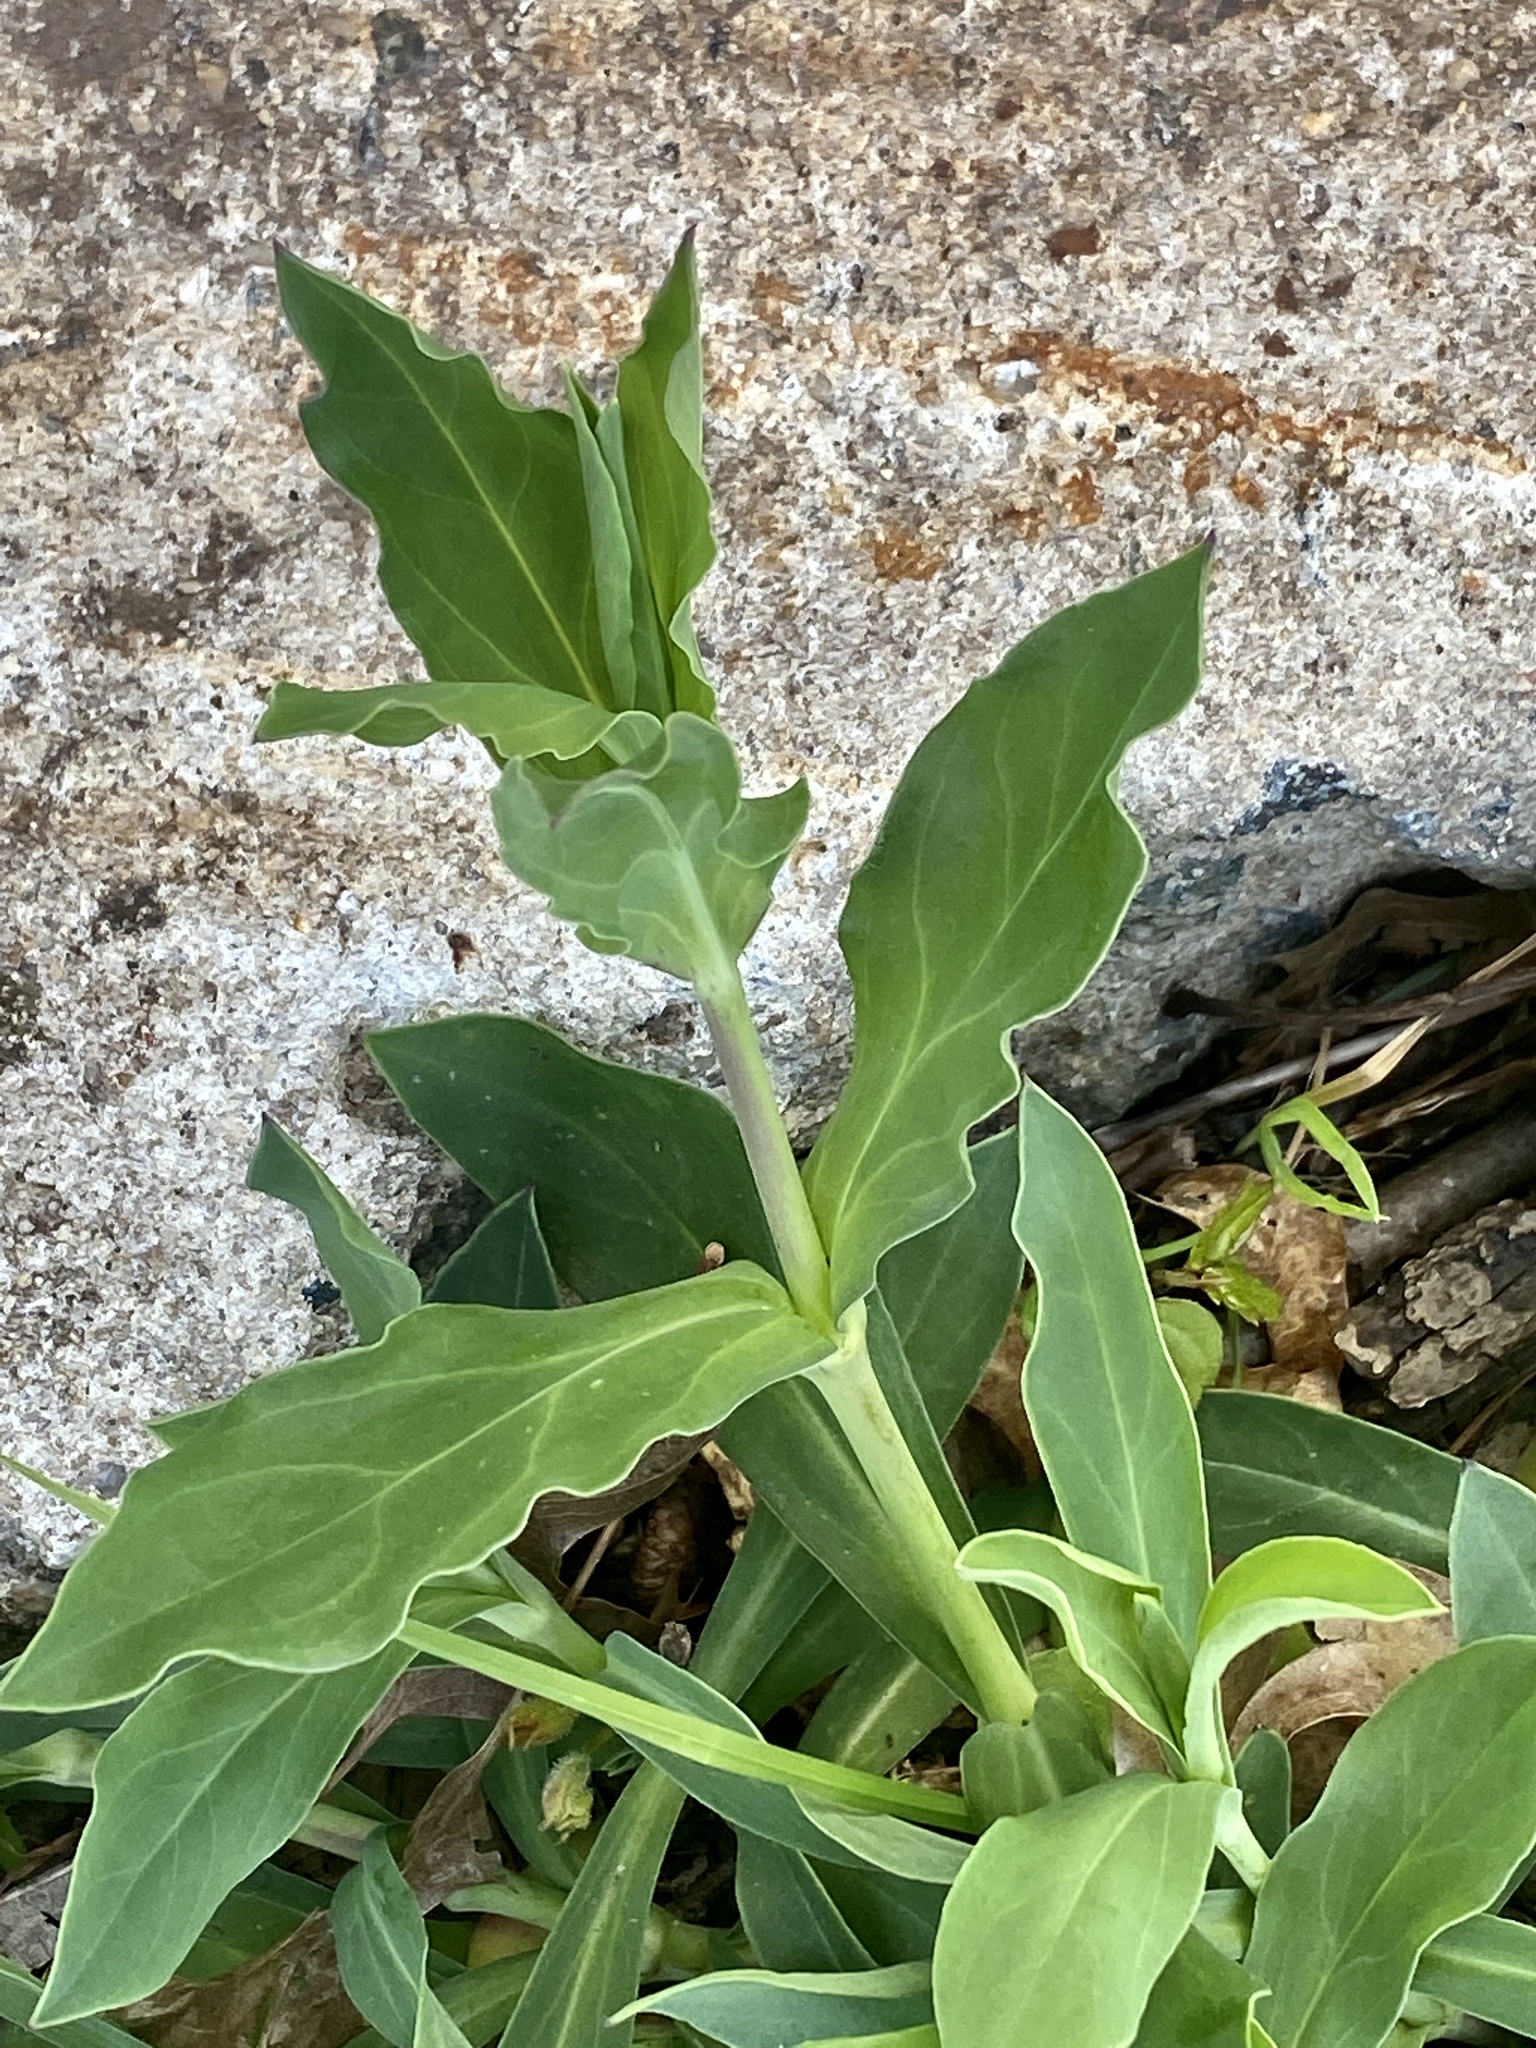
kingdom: Plantae
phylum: Tracheophyta
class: Magnoliopsida
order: Caryophyllales
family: Caryophyllaceae
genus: Silene
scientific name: Silene vulgaris
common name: Bladder campion
